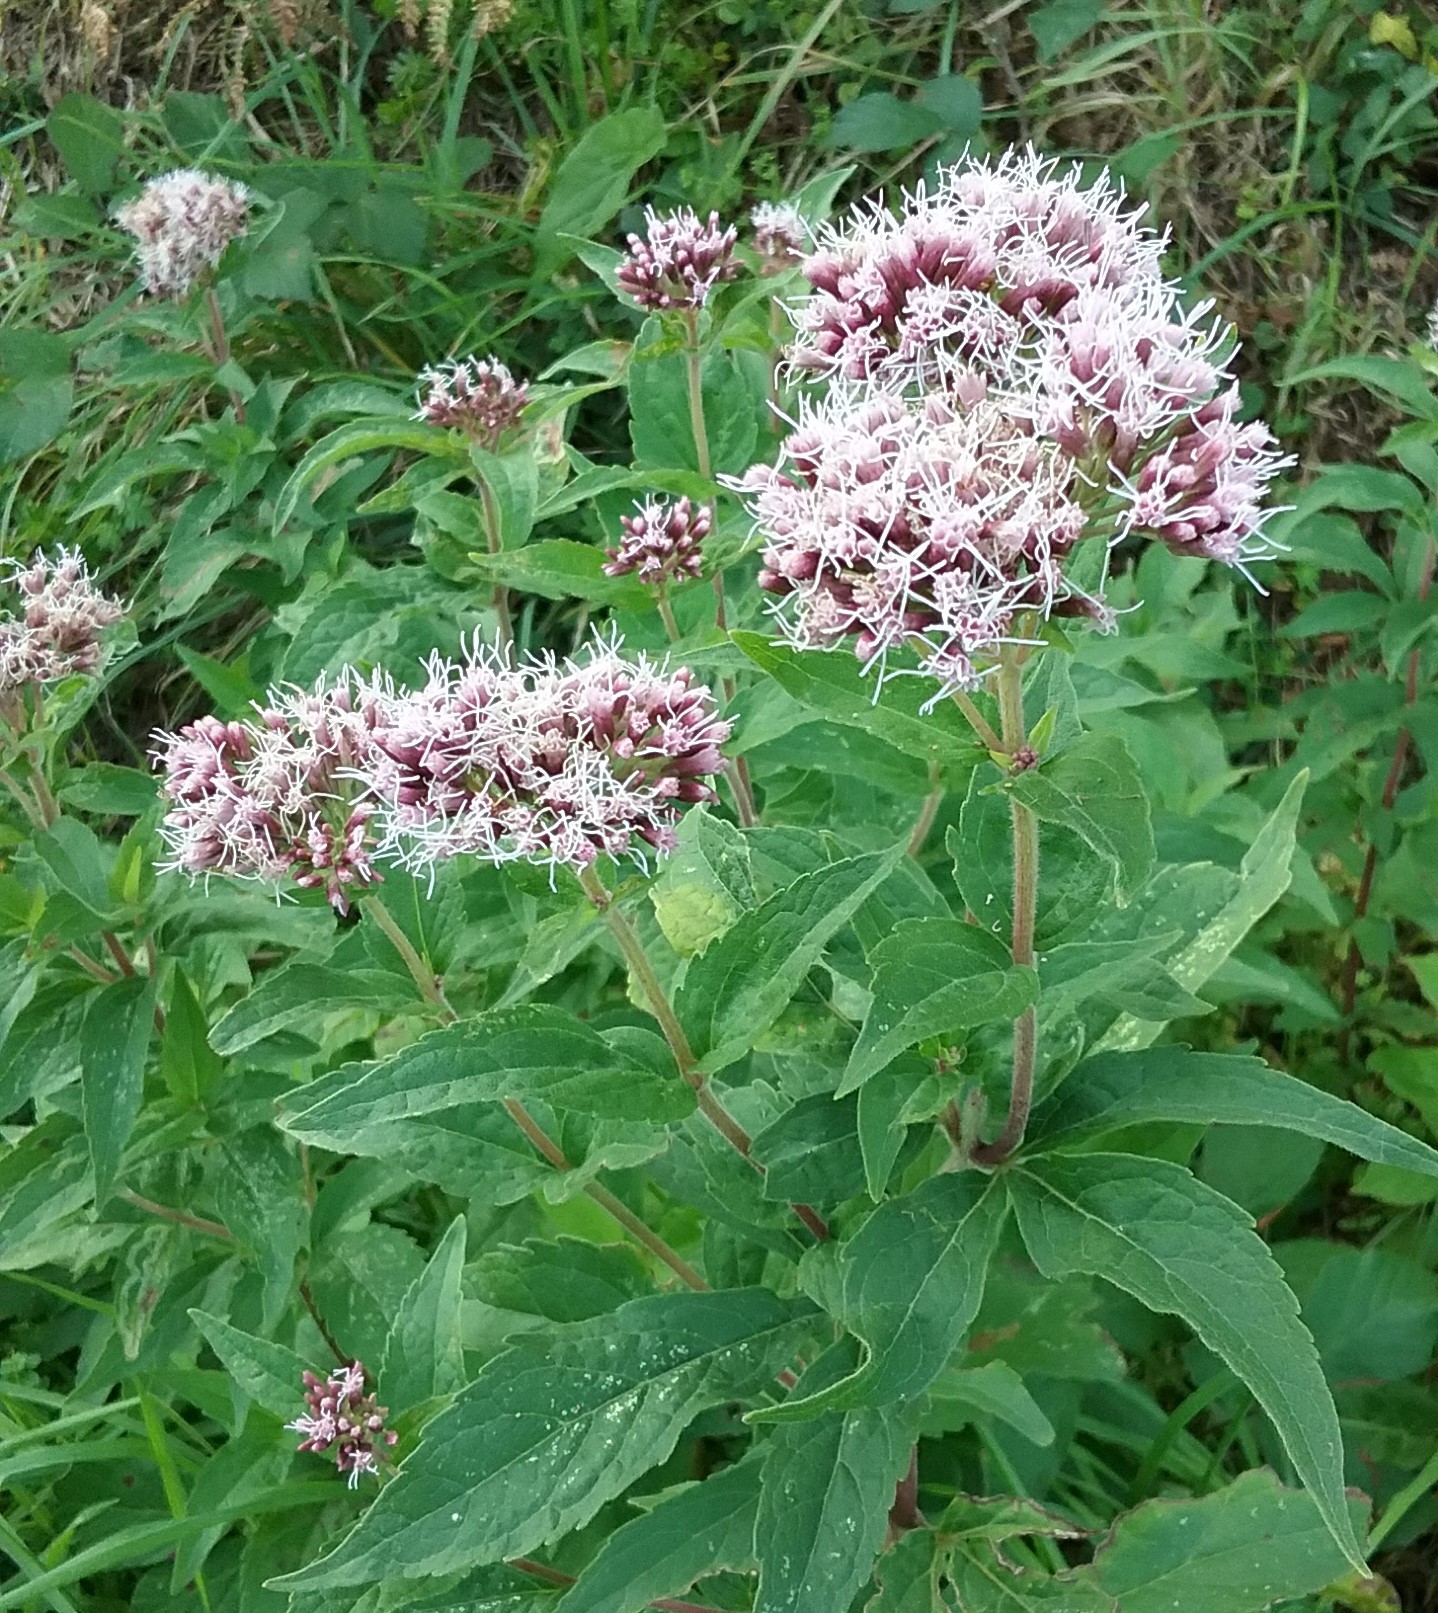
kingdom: Plantae
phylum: Tracheophyta
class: Magnoliopsida
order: Asterales
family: Asteraceae
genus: Eupatorium
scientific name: Eupatorium cannabinum
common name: Hemp-agrimony
